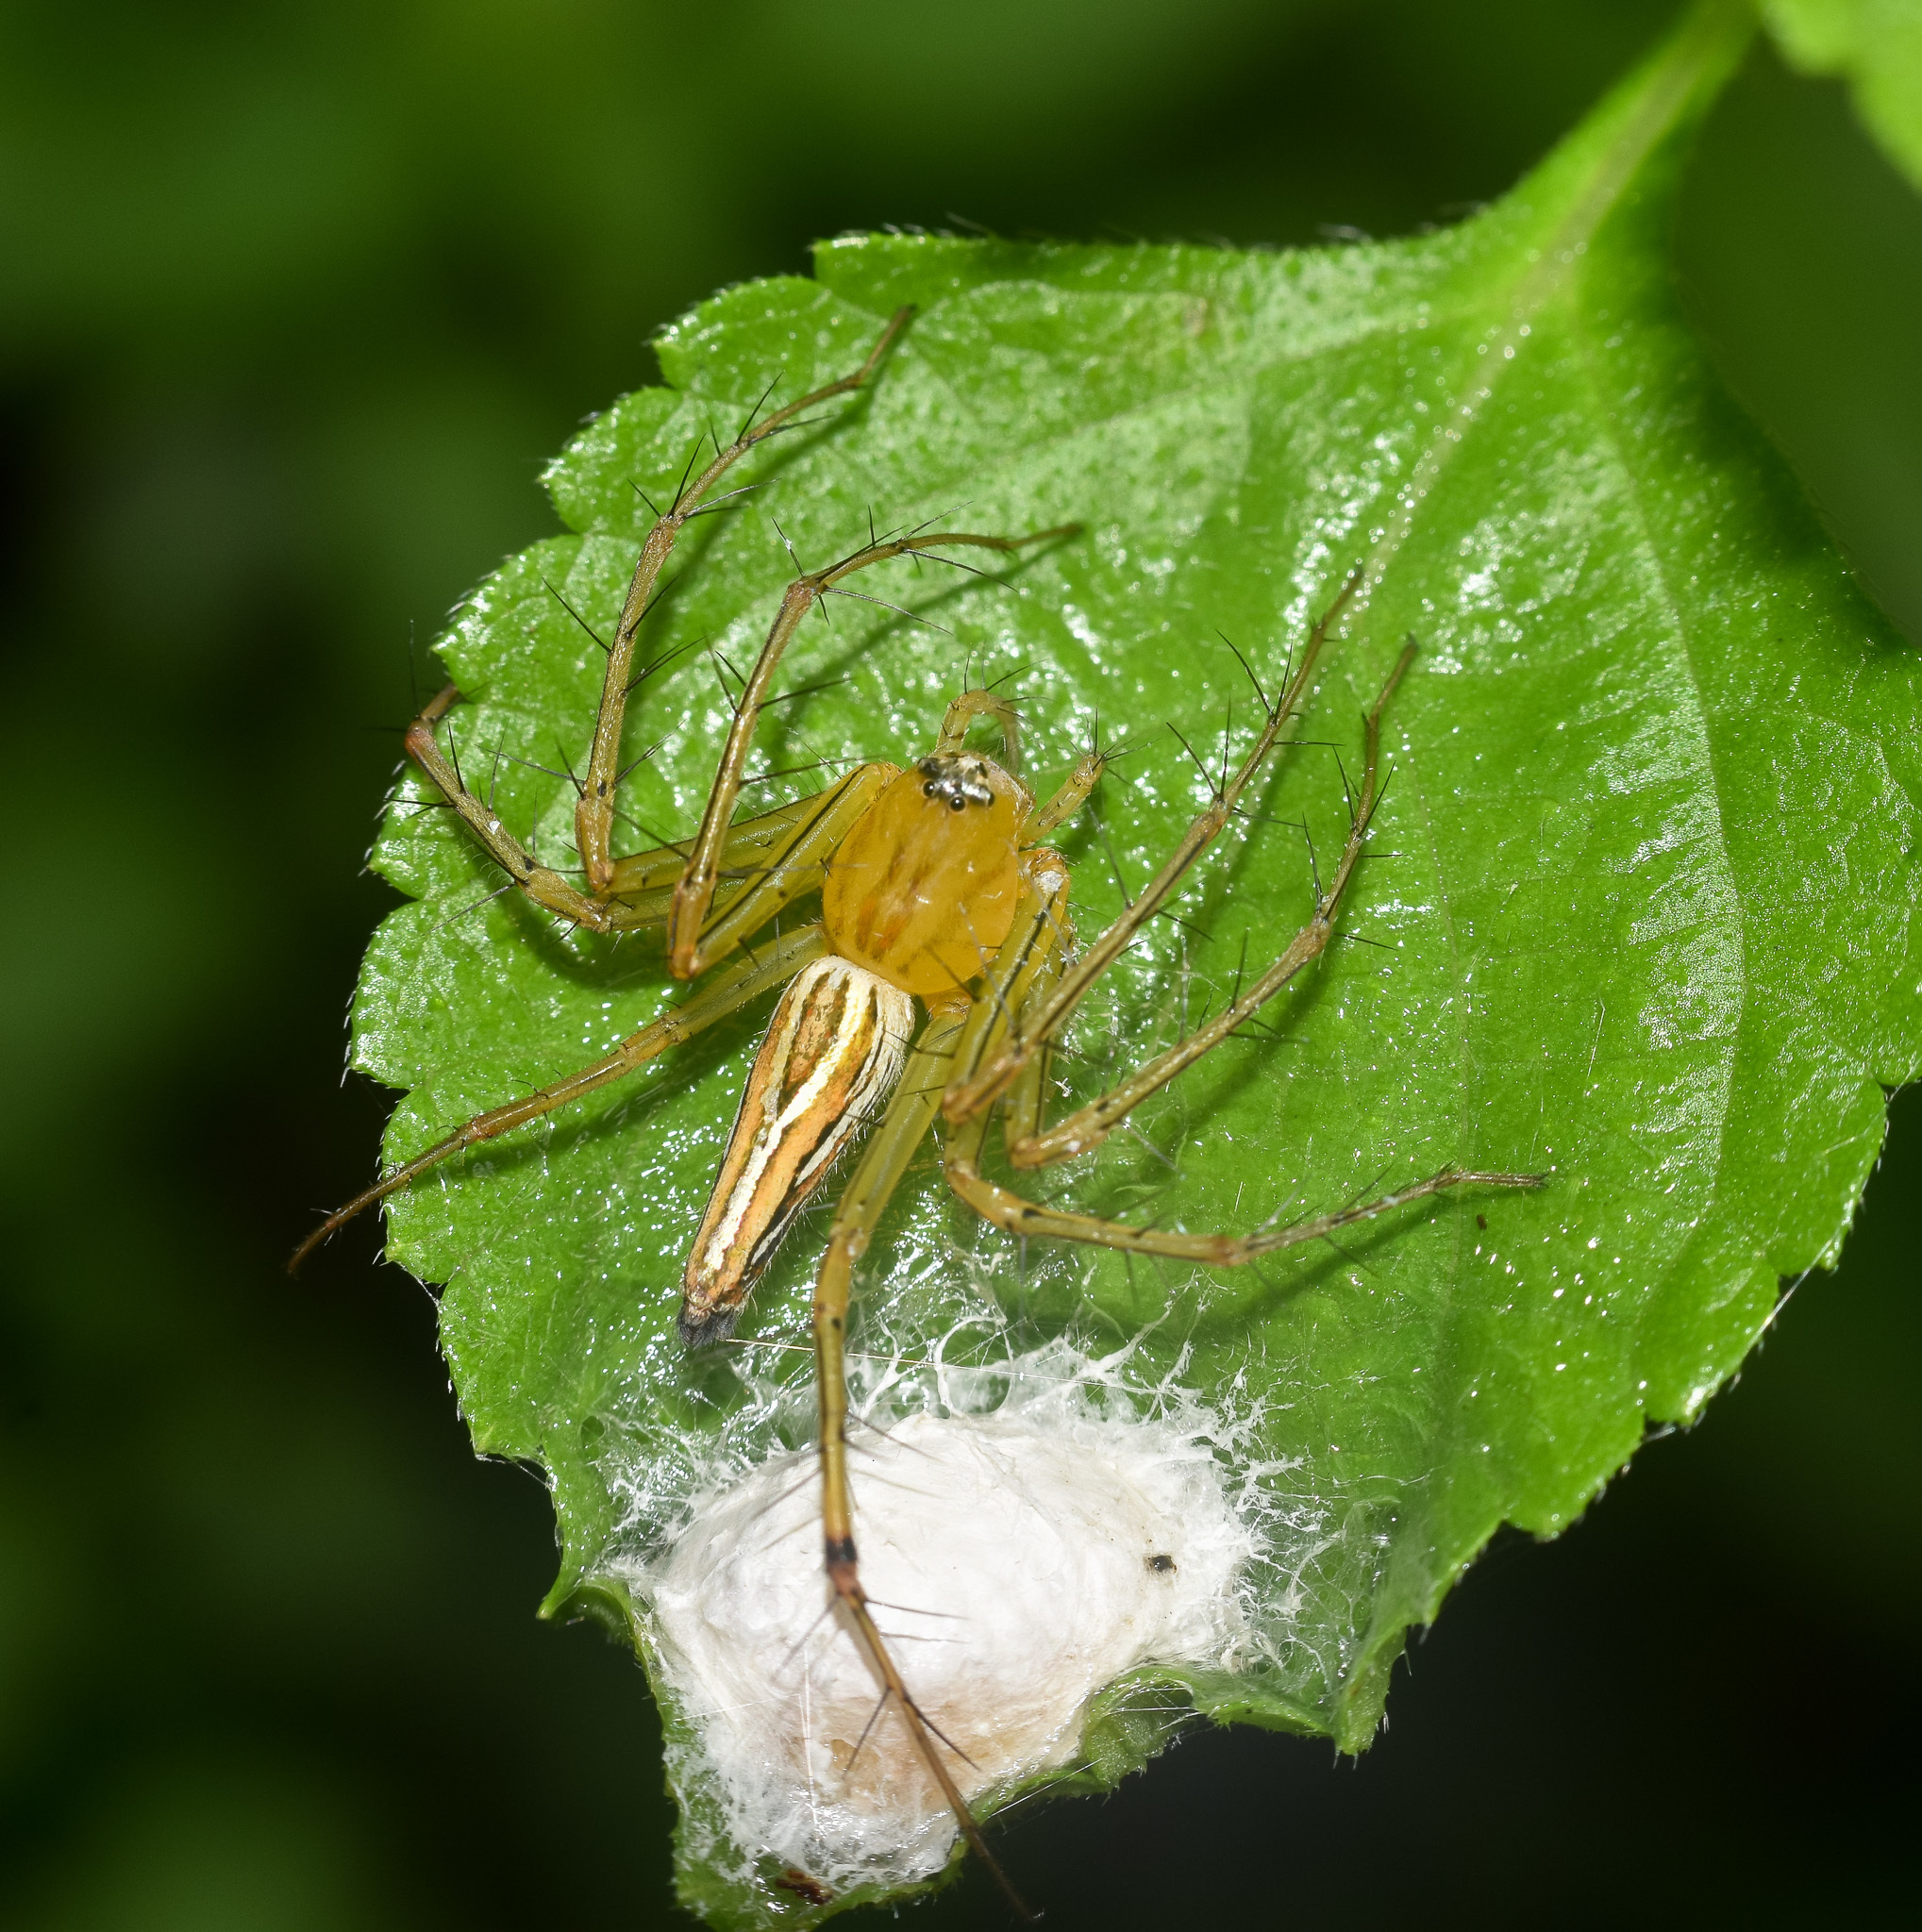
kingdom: Animalia
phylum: Arthropoda
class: Arachnida
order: Araneae
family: Oxyopidae
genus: Oxyopes
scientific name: Oxyopes
